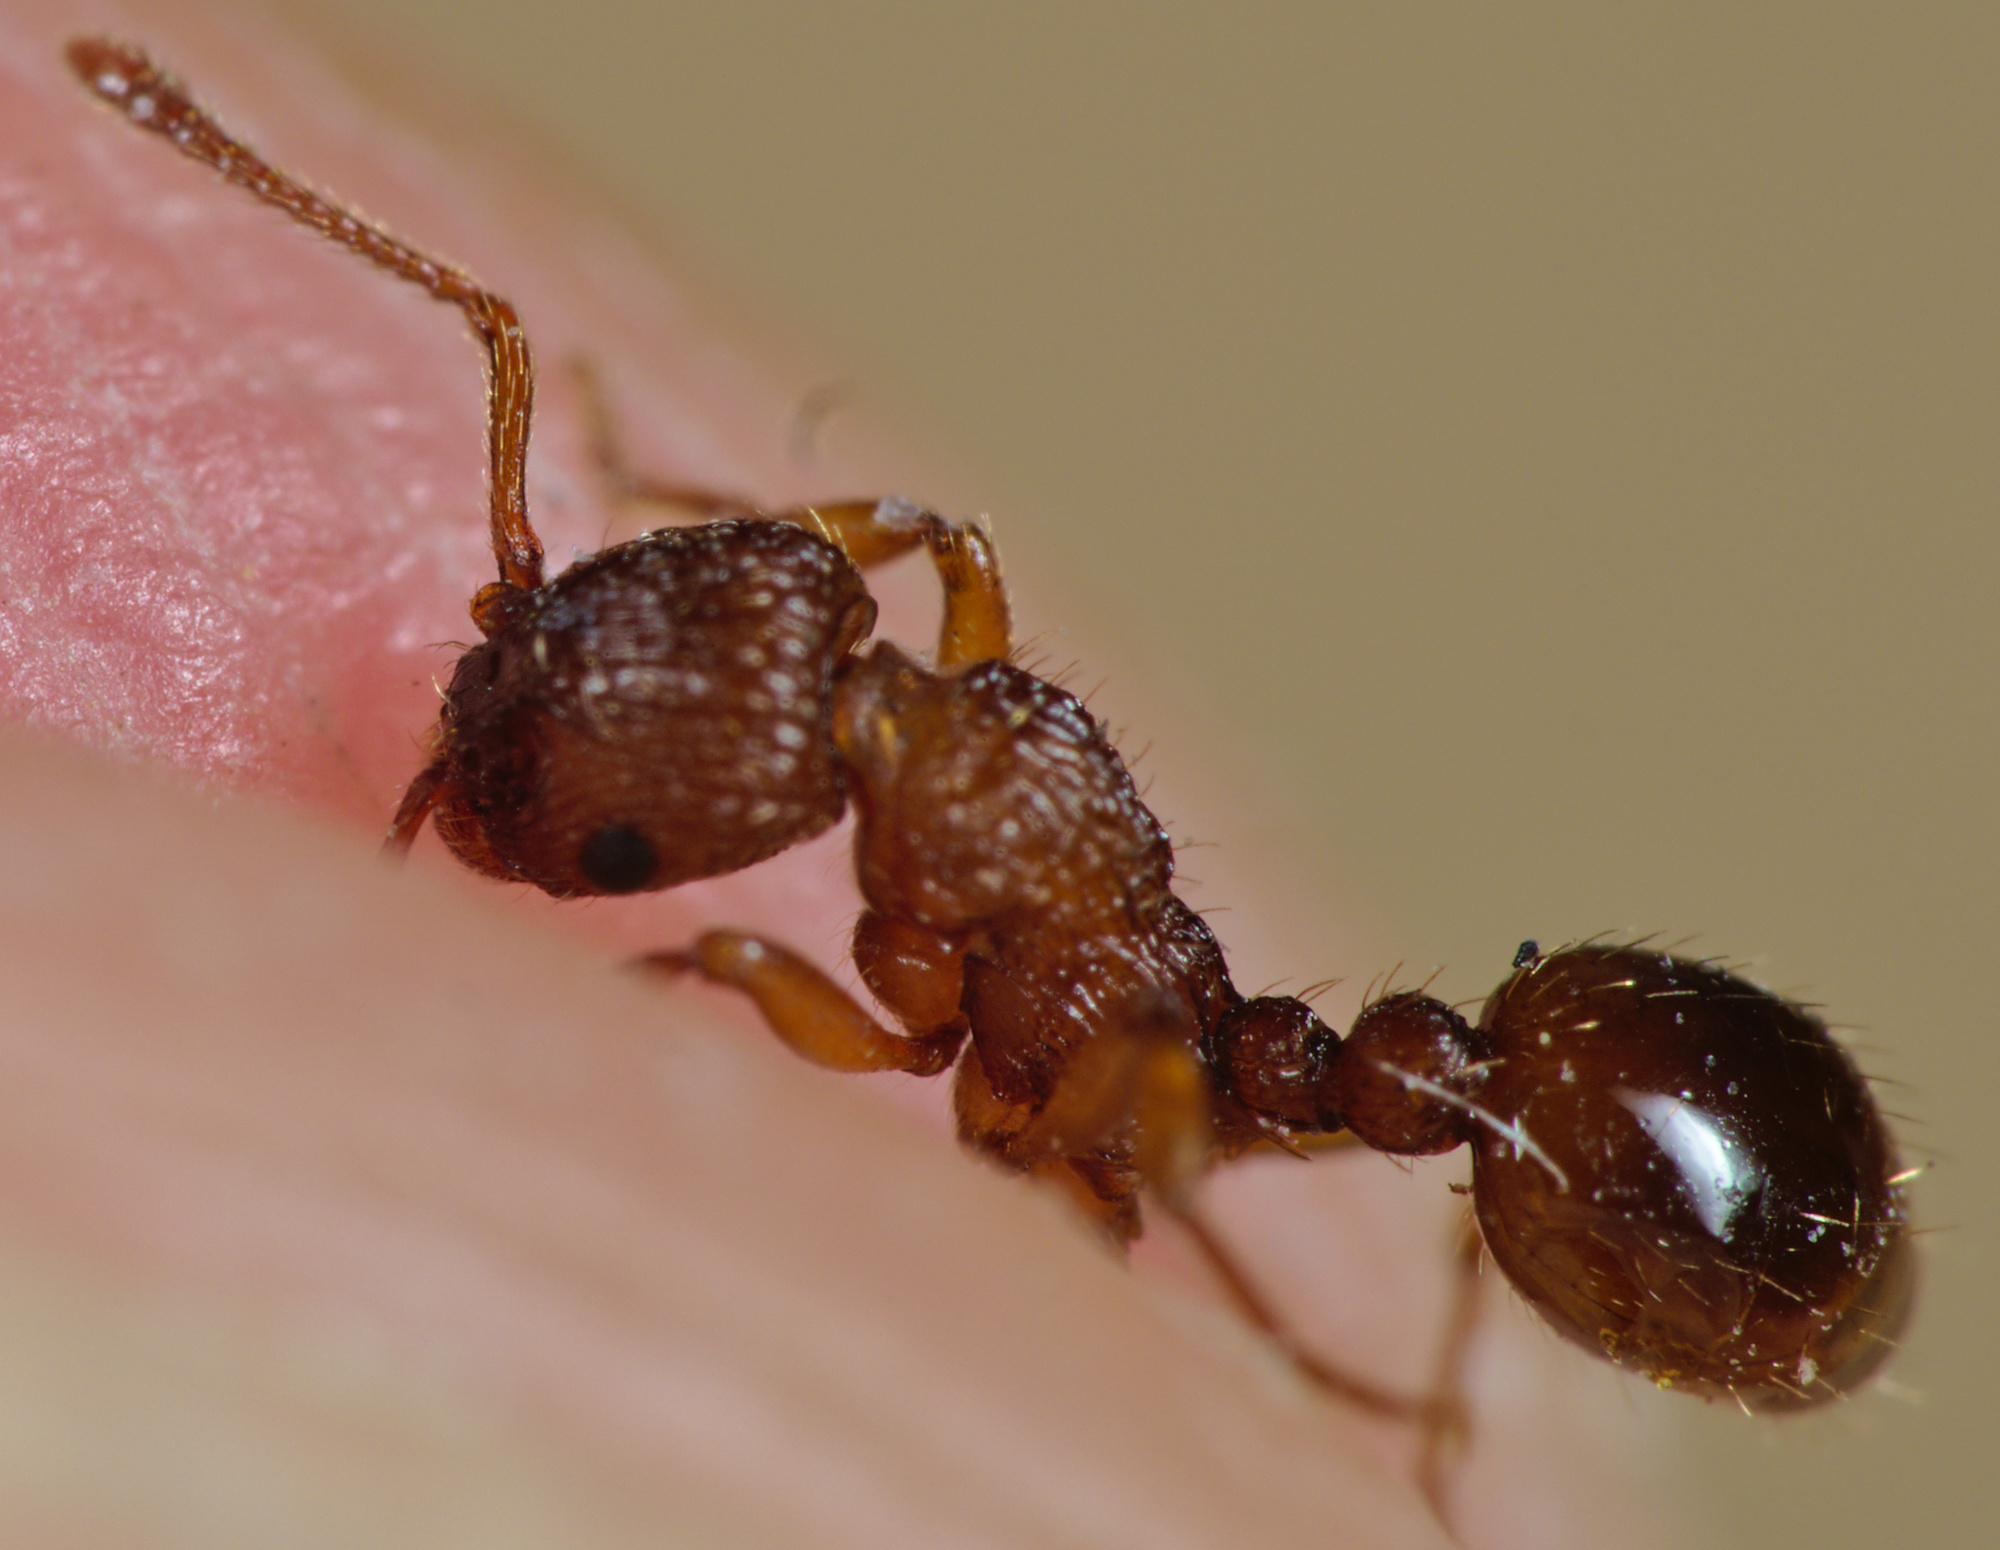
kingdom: Animalia
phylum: Arthropoda
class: Insecta
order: Hymenoptera
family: Formicidae
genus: Myrmica
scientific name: Myrmica scabrinodis
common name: Ant
